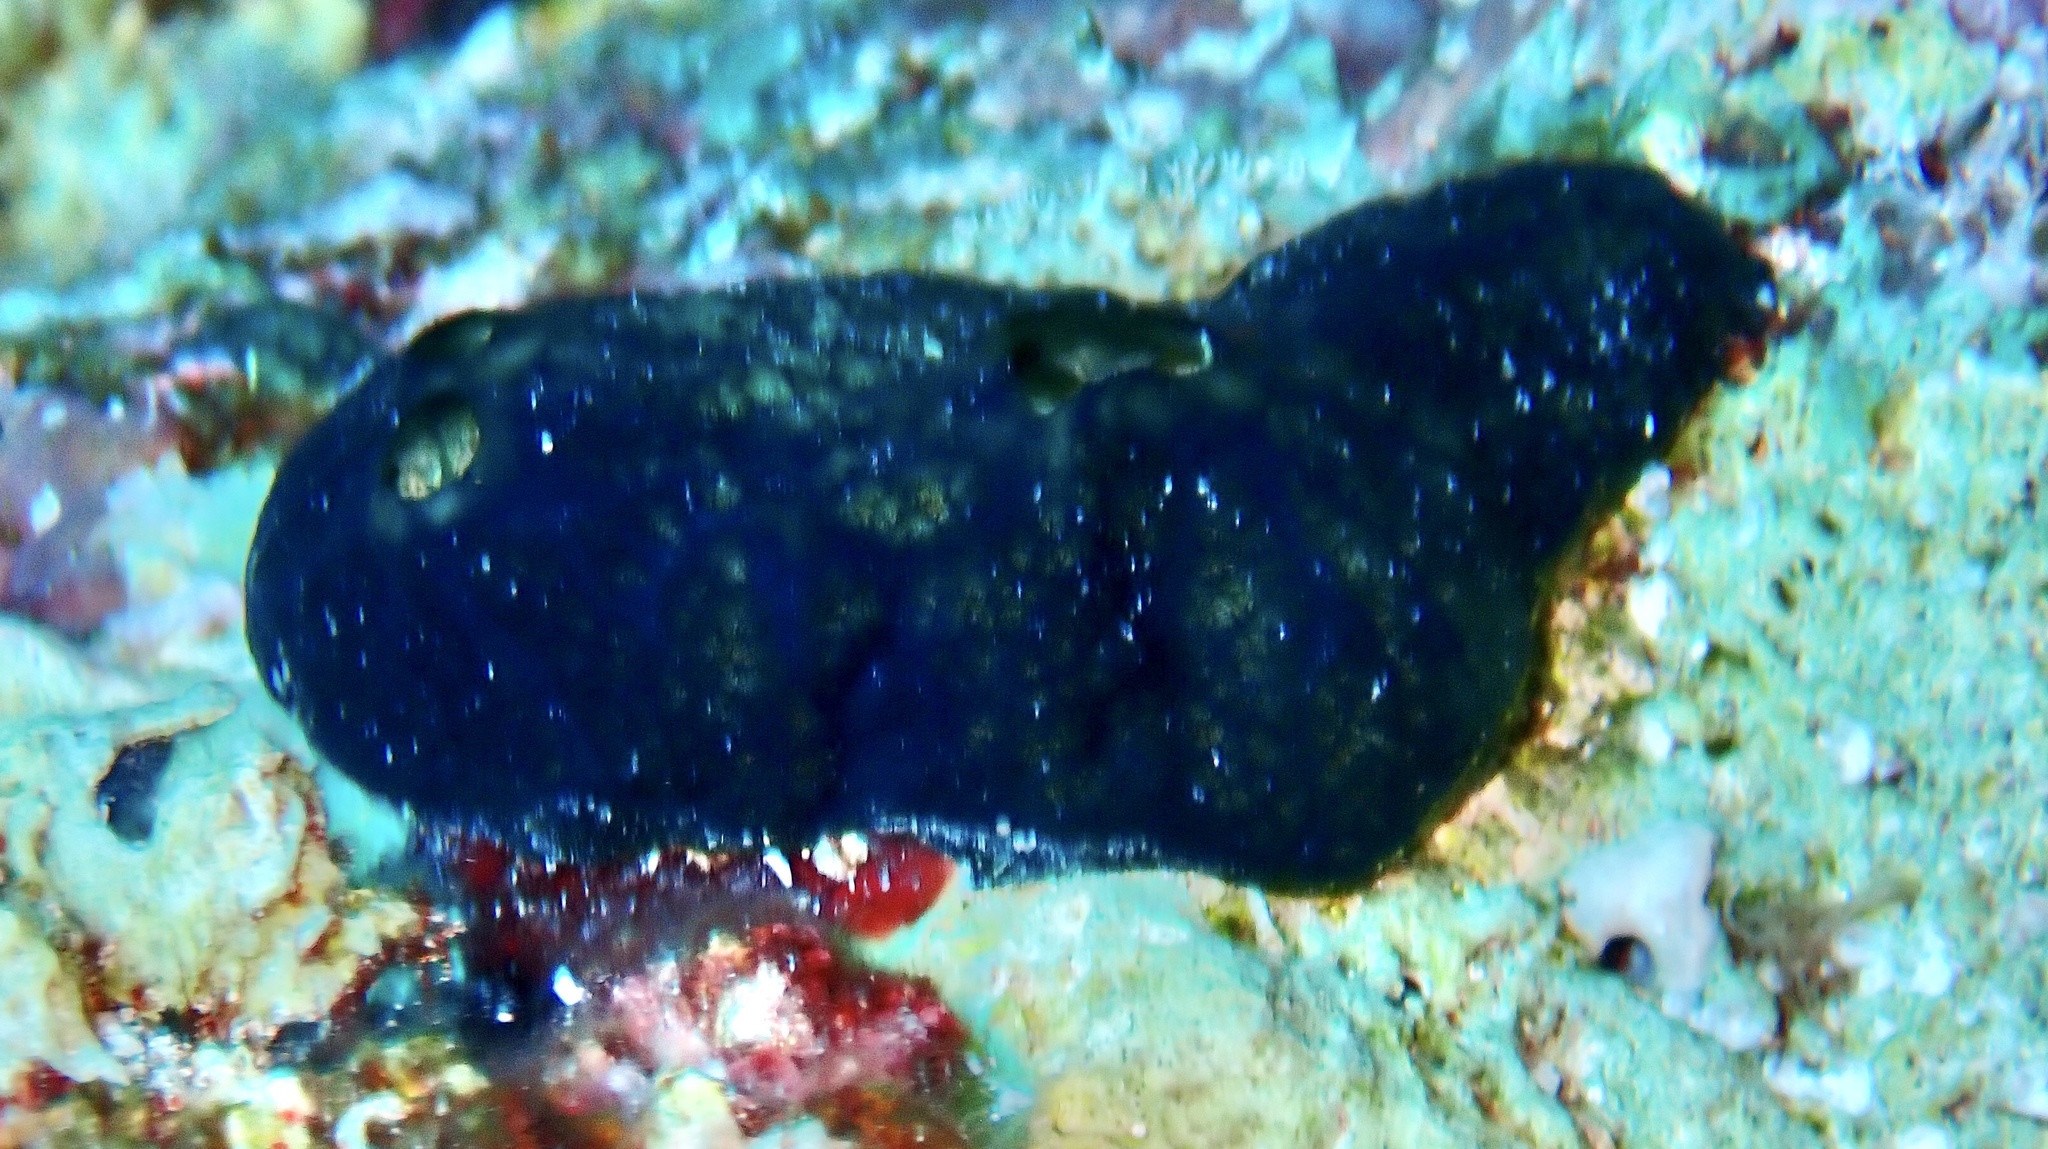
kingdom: Animalia
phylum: Porifera
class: Demospongiae
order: Poecilosclerida
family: Hymedesmiidae
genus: Hemimycale
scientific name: Hemimycale arabica
